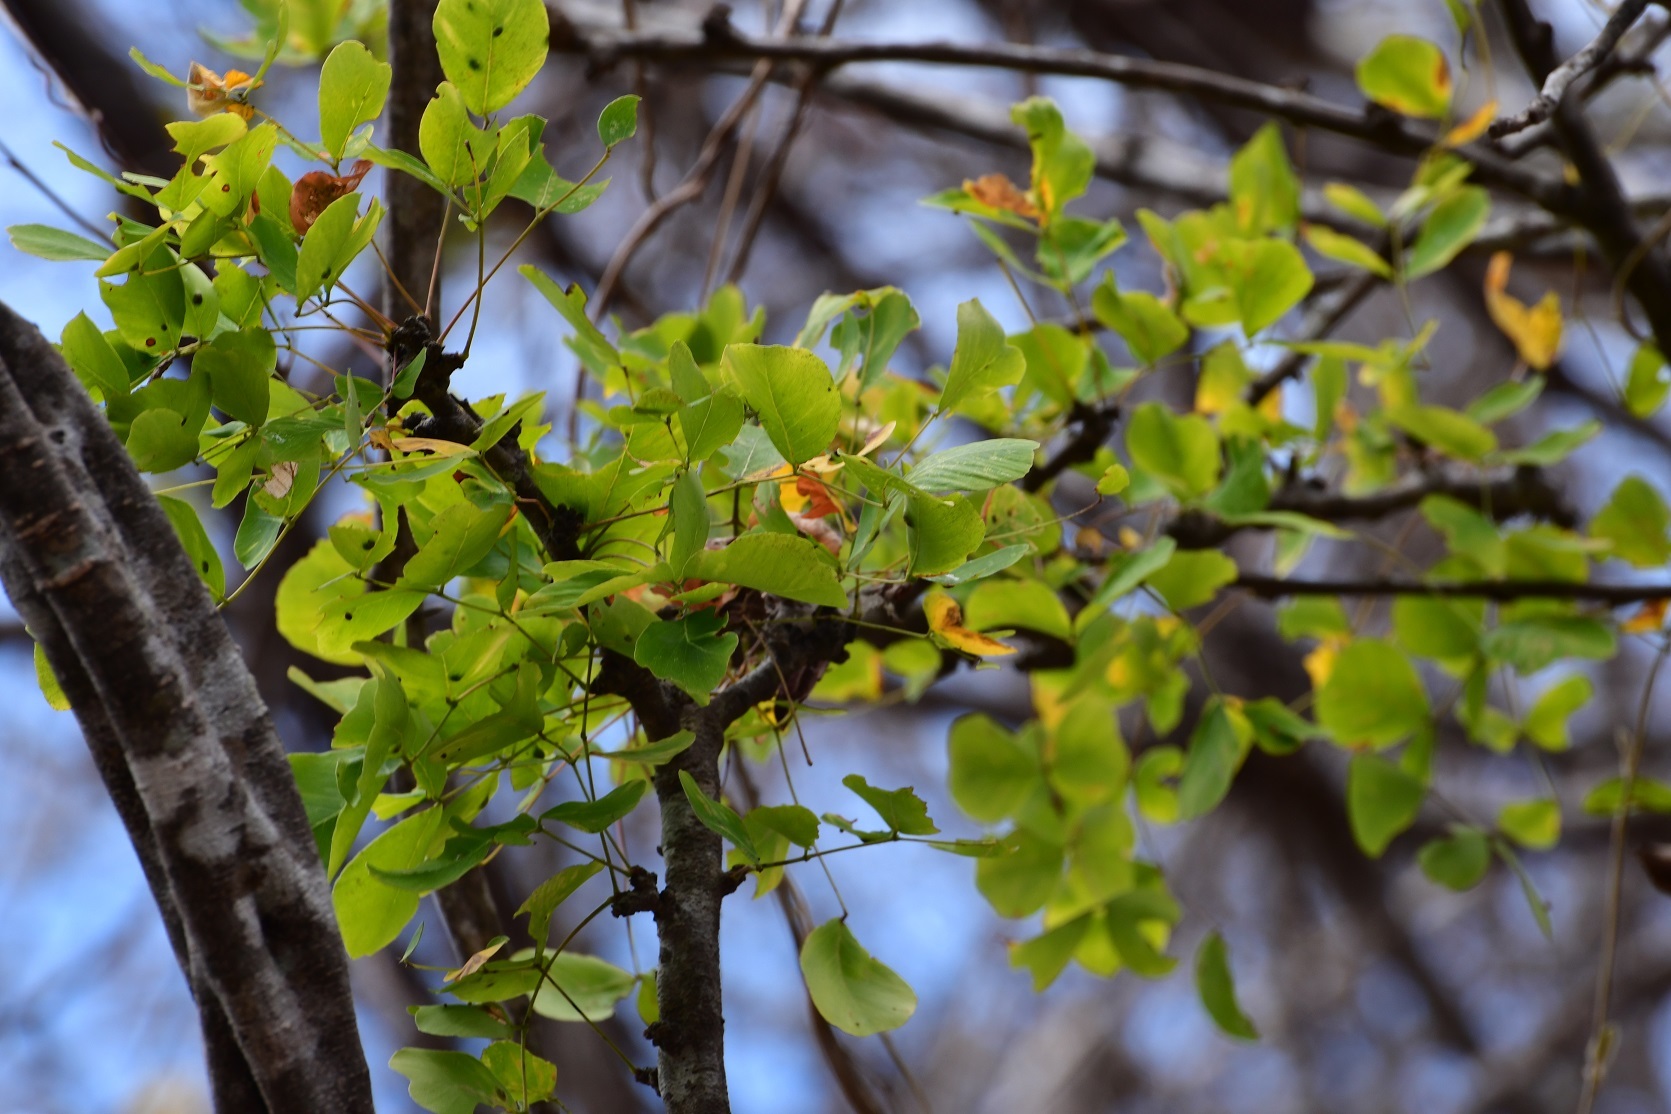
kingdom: Plantae
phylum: Tracheophyta
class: Magnoliopsida
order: Fabales
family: Fabaceae
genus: Haematoxylum
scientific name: Haematoxylum brasiletto
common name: Peachwood
